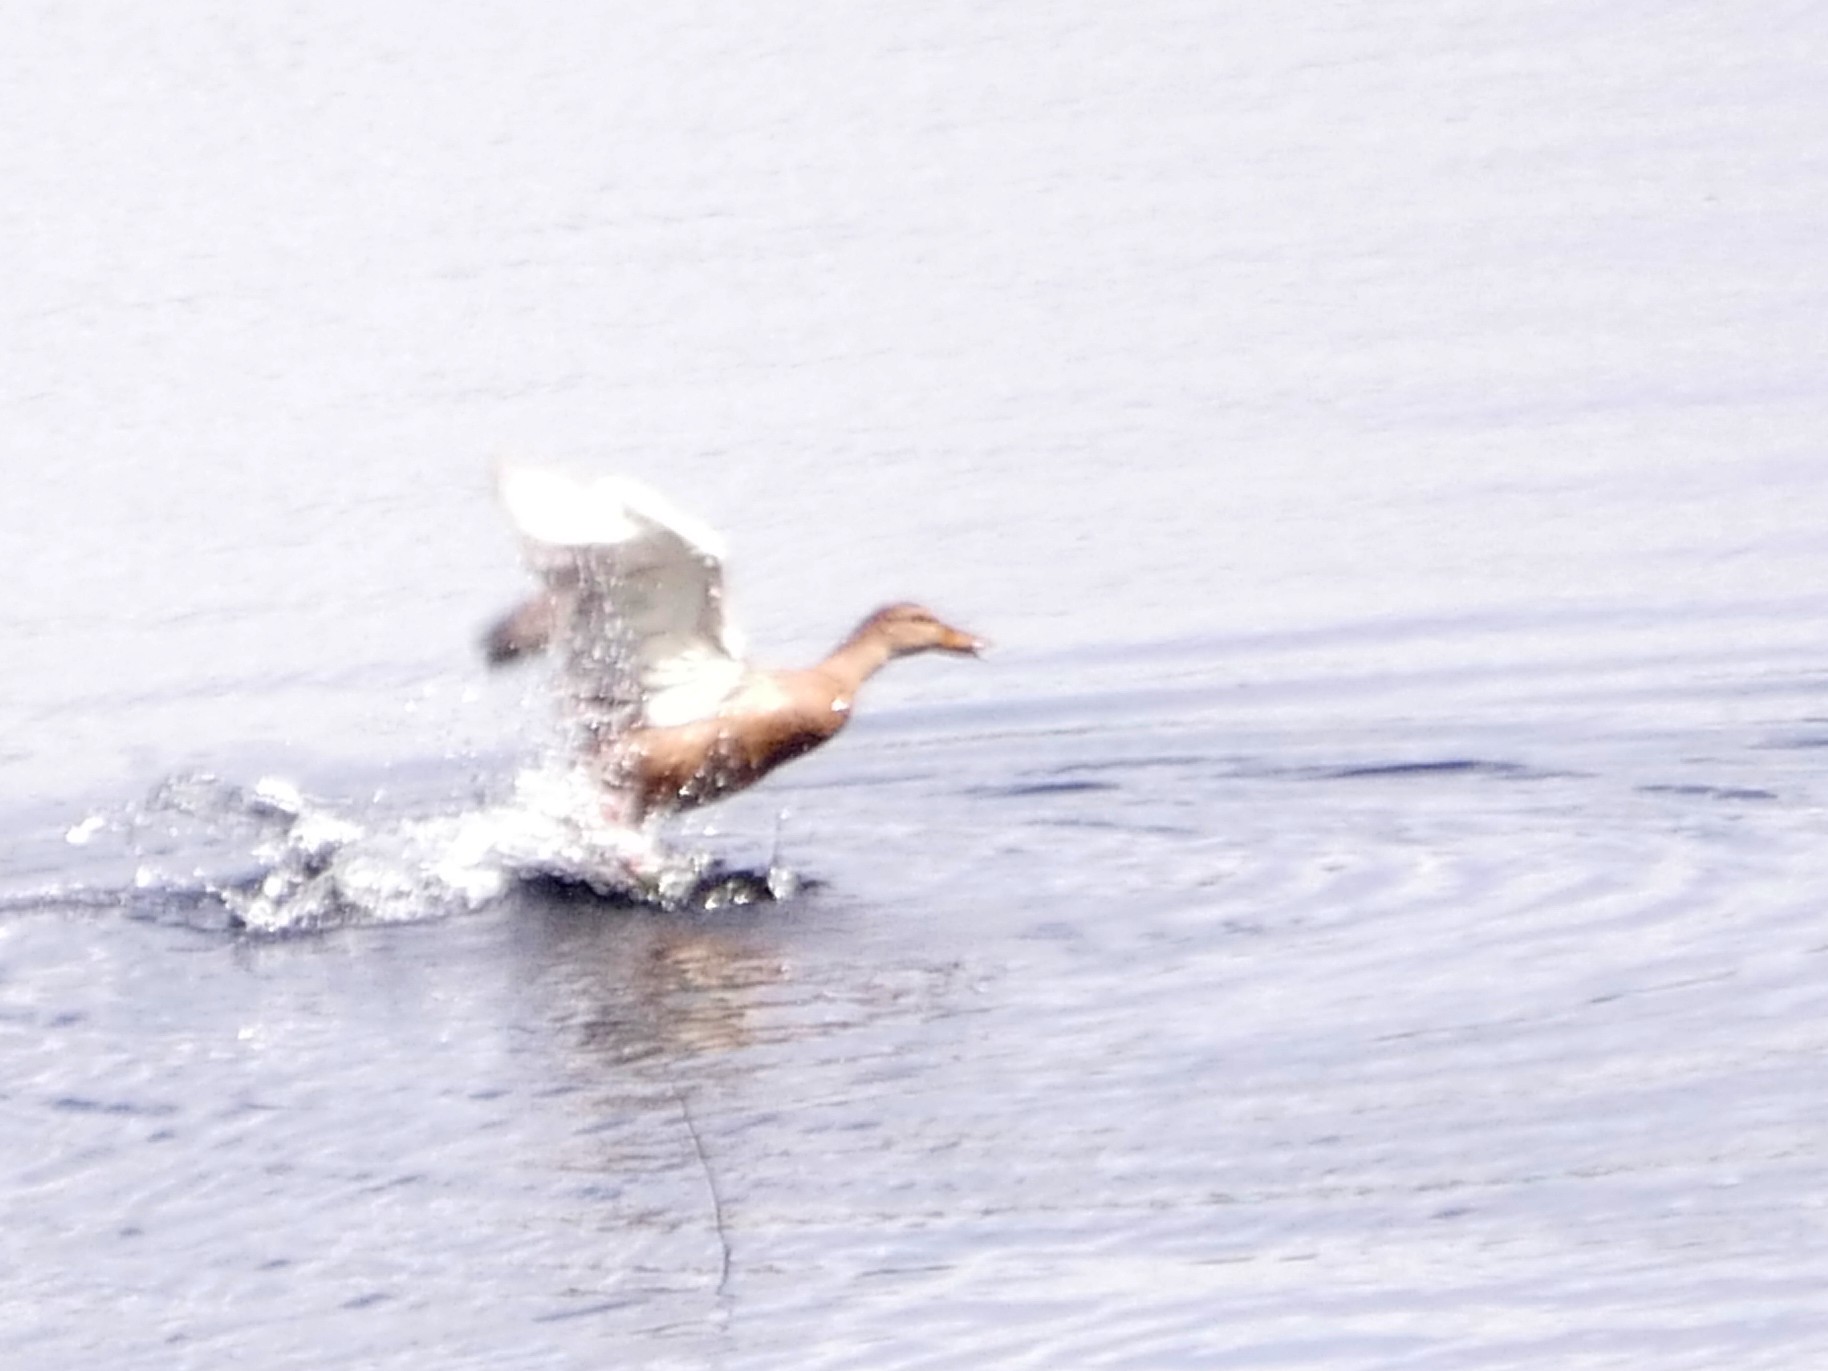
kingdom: Animalia
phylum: Chordata
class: Aves
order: Anseriformes
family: Anatidae
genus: Anas
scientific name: Anas platyrhynchos
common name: Mallard
